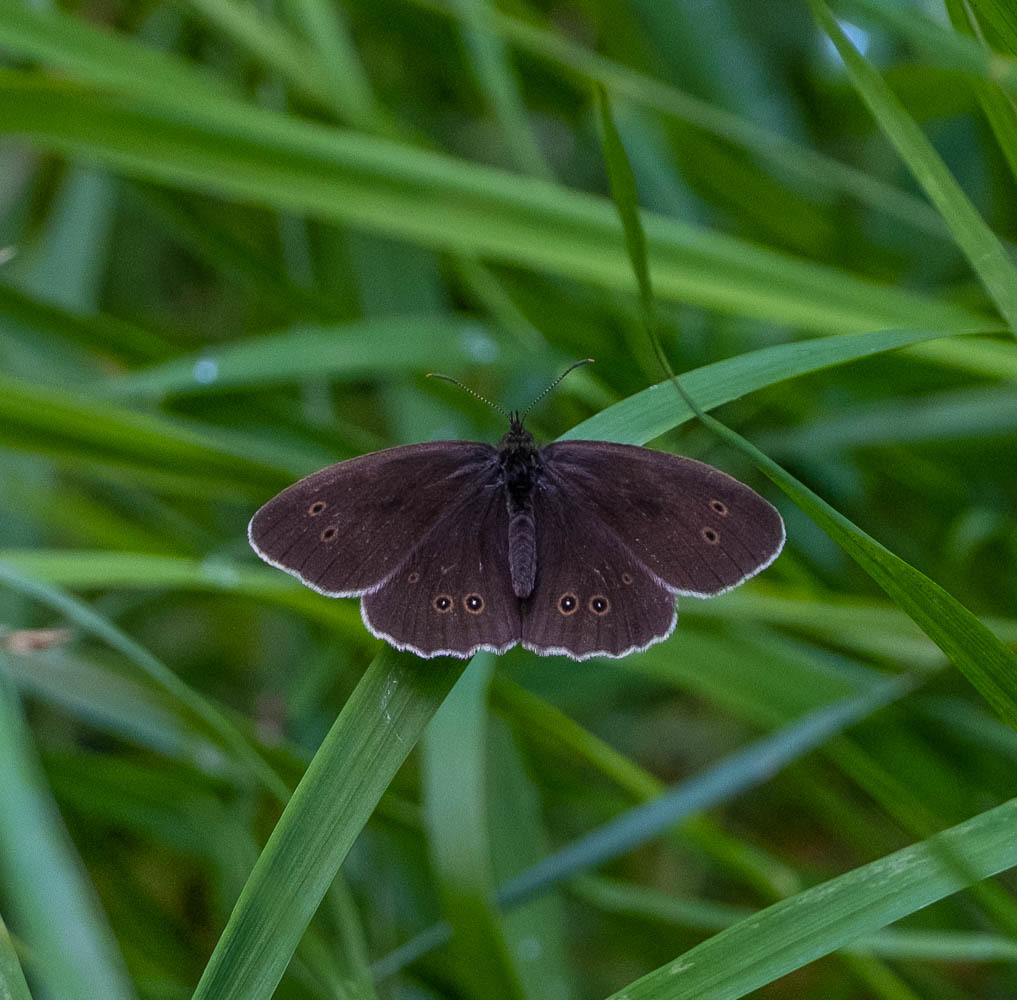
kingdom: Animalia
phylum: Arthropoda
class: Insecta
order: Lepidoptera
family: Nymphalidae
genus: Aphantopus
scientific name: Aphantopus hyperantus
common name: Ringlet
